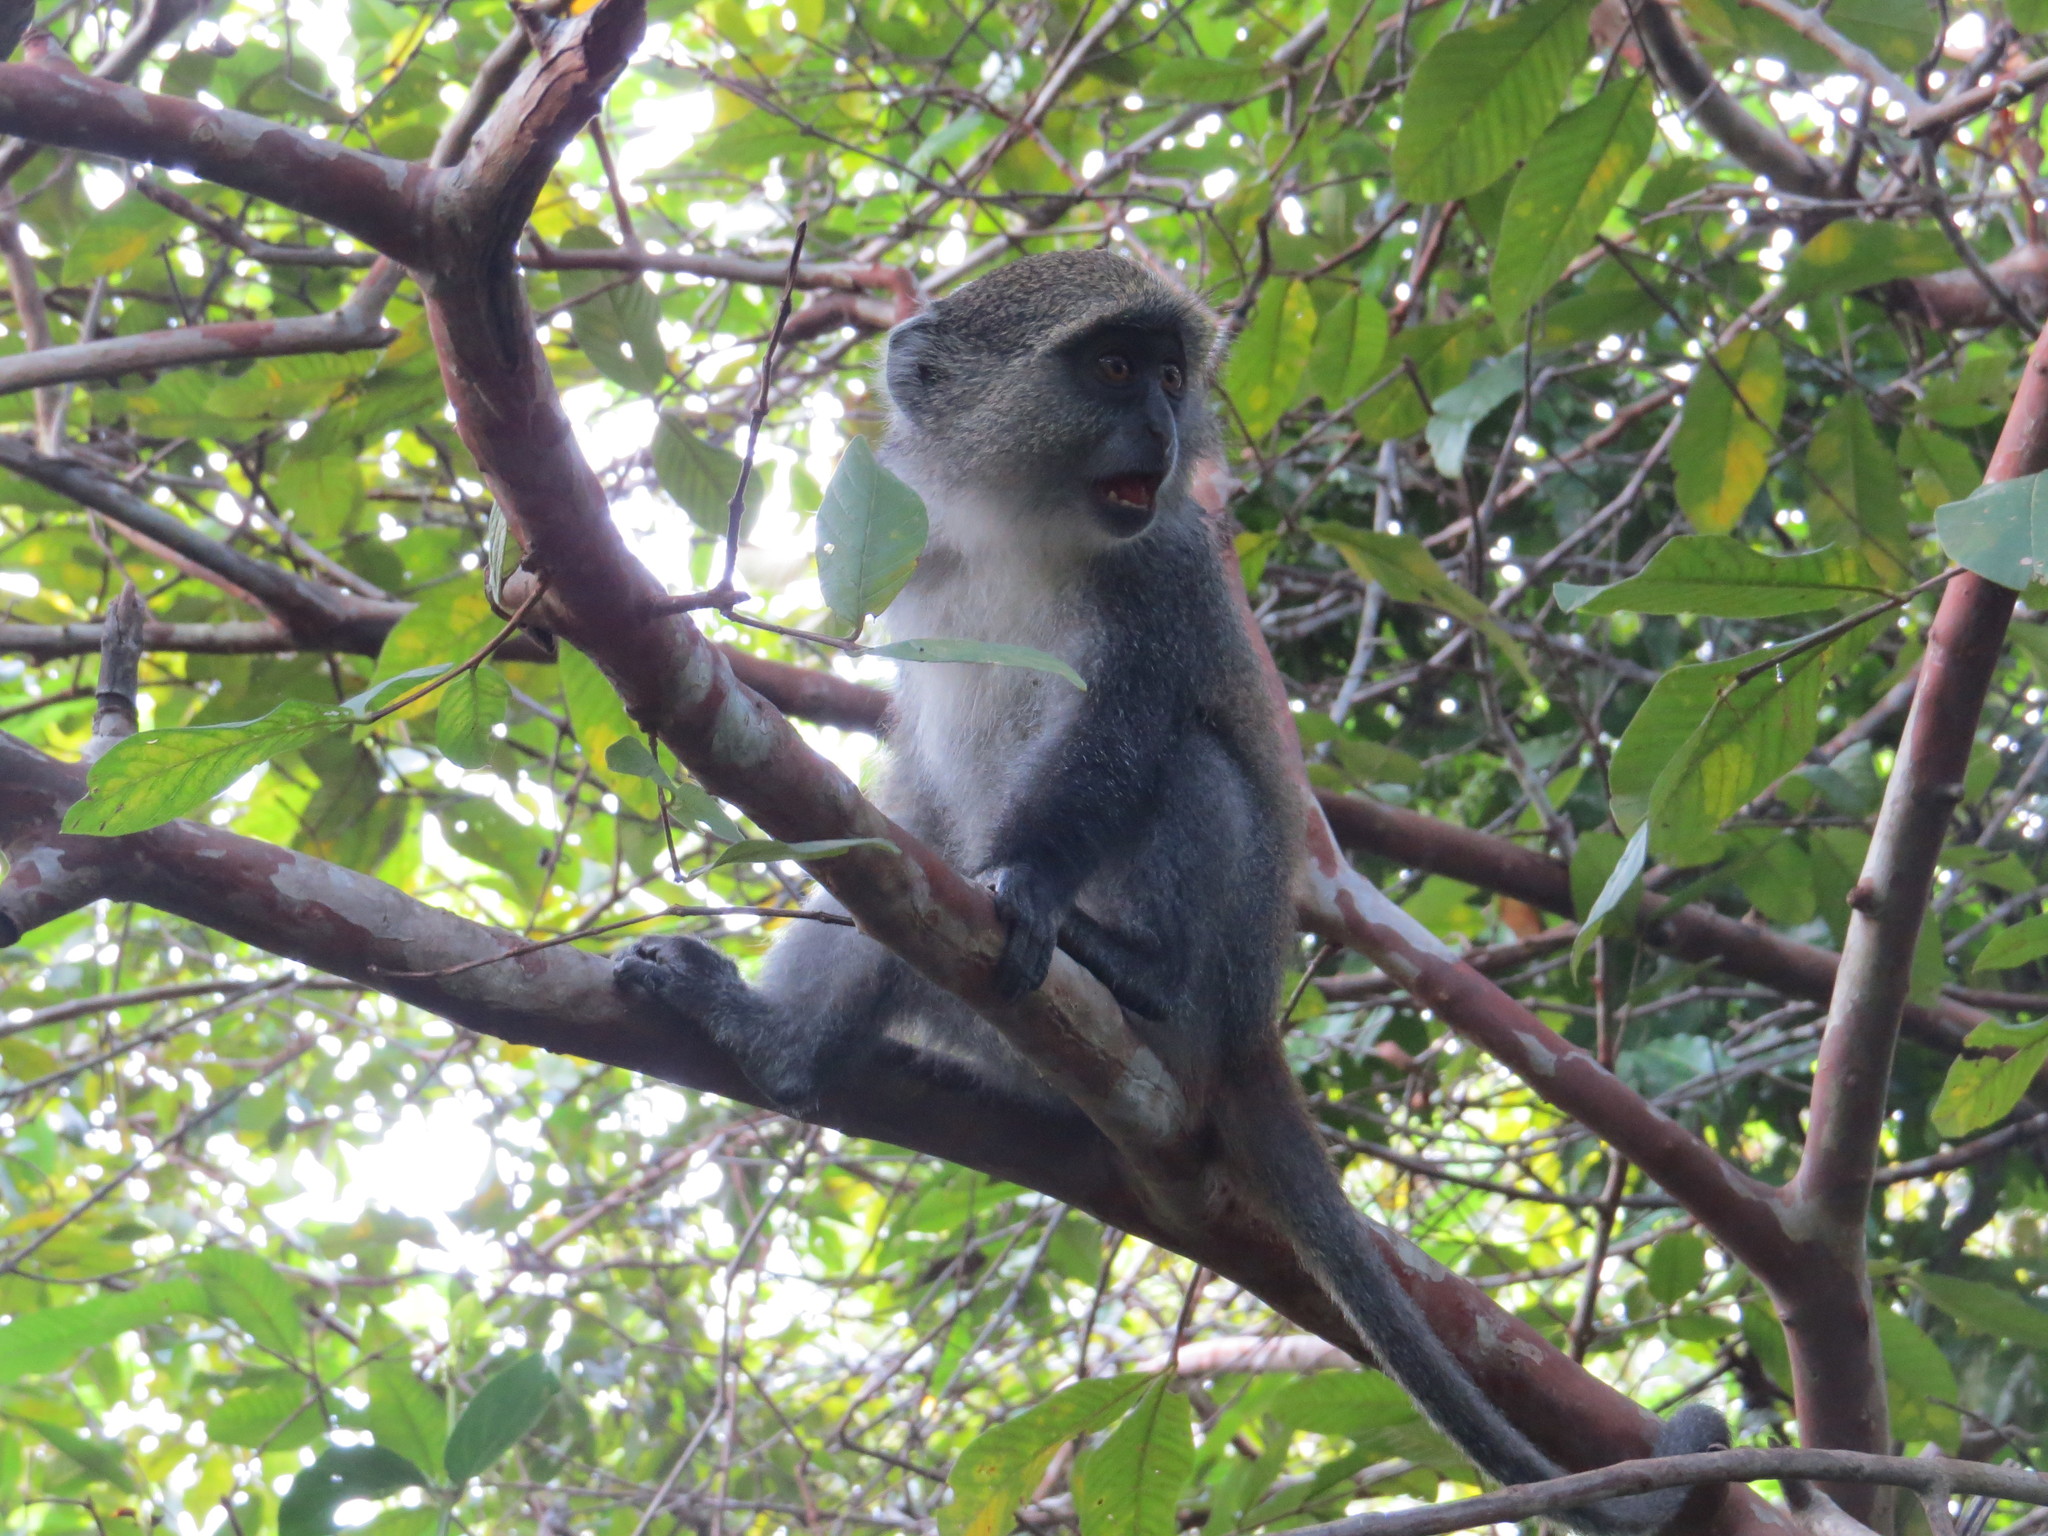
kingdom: Animalia
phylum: Chordata
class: Mammalia
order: Primates
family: Cercopithecidae
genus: Cercopithecus
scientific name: Cercopithecus mitis
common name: Blue monkey
